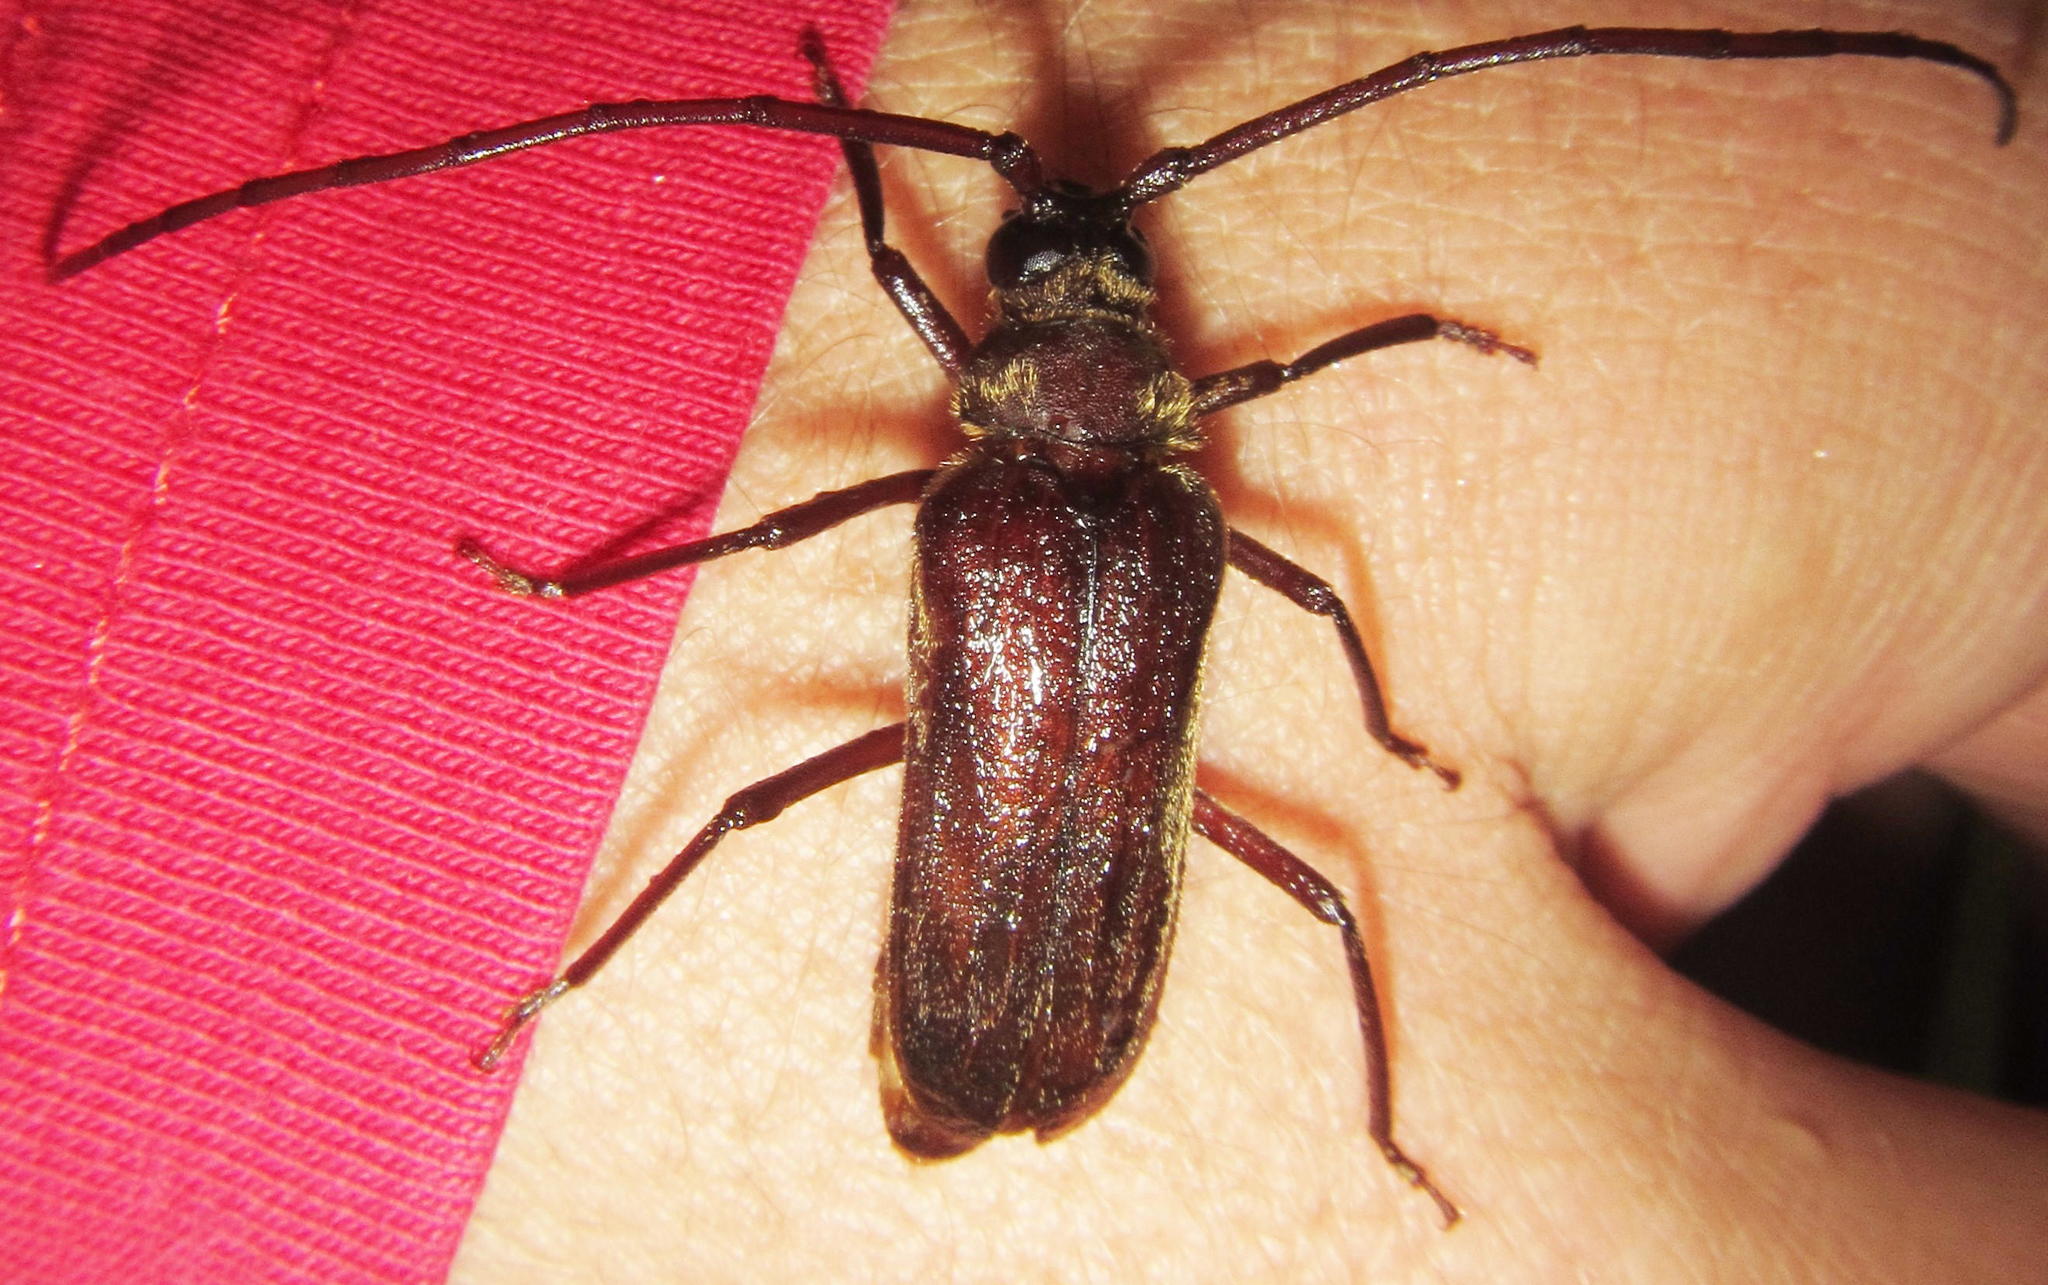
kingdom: Animalia
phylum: Arthropoda
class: Insecta
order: Coleoptera
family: Cerambycidae
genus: Oceanomegopis
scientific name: Oceanomegopis caledonica
